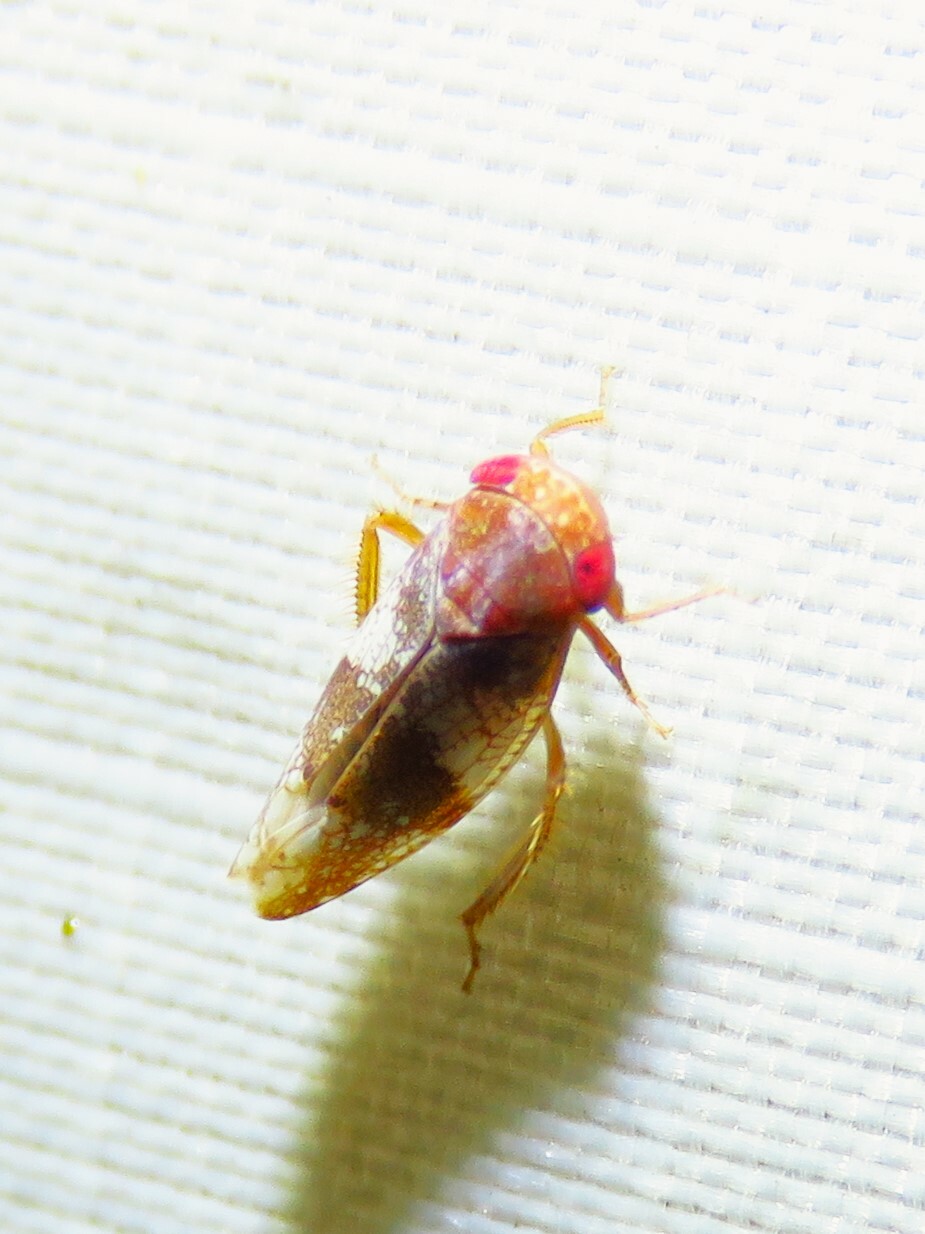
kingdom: Animalia
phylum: Arthropoda
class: Insecta
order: Hemiptera
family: Cicadellidae
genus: Norvellina
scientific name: Norvellina helenae
